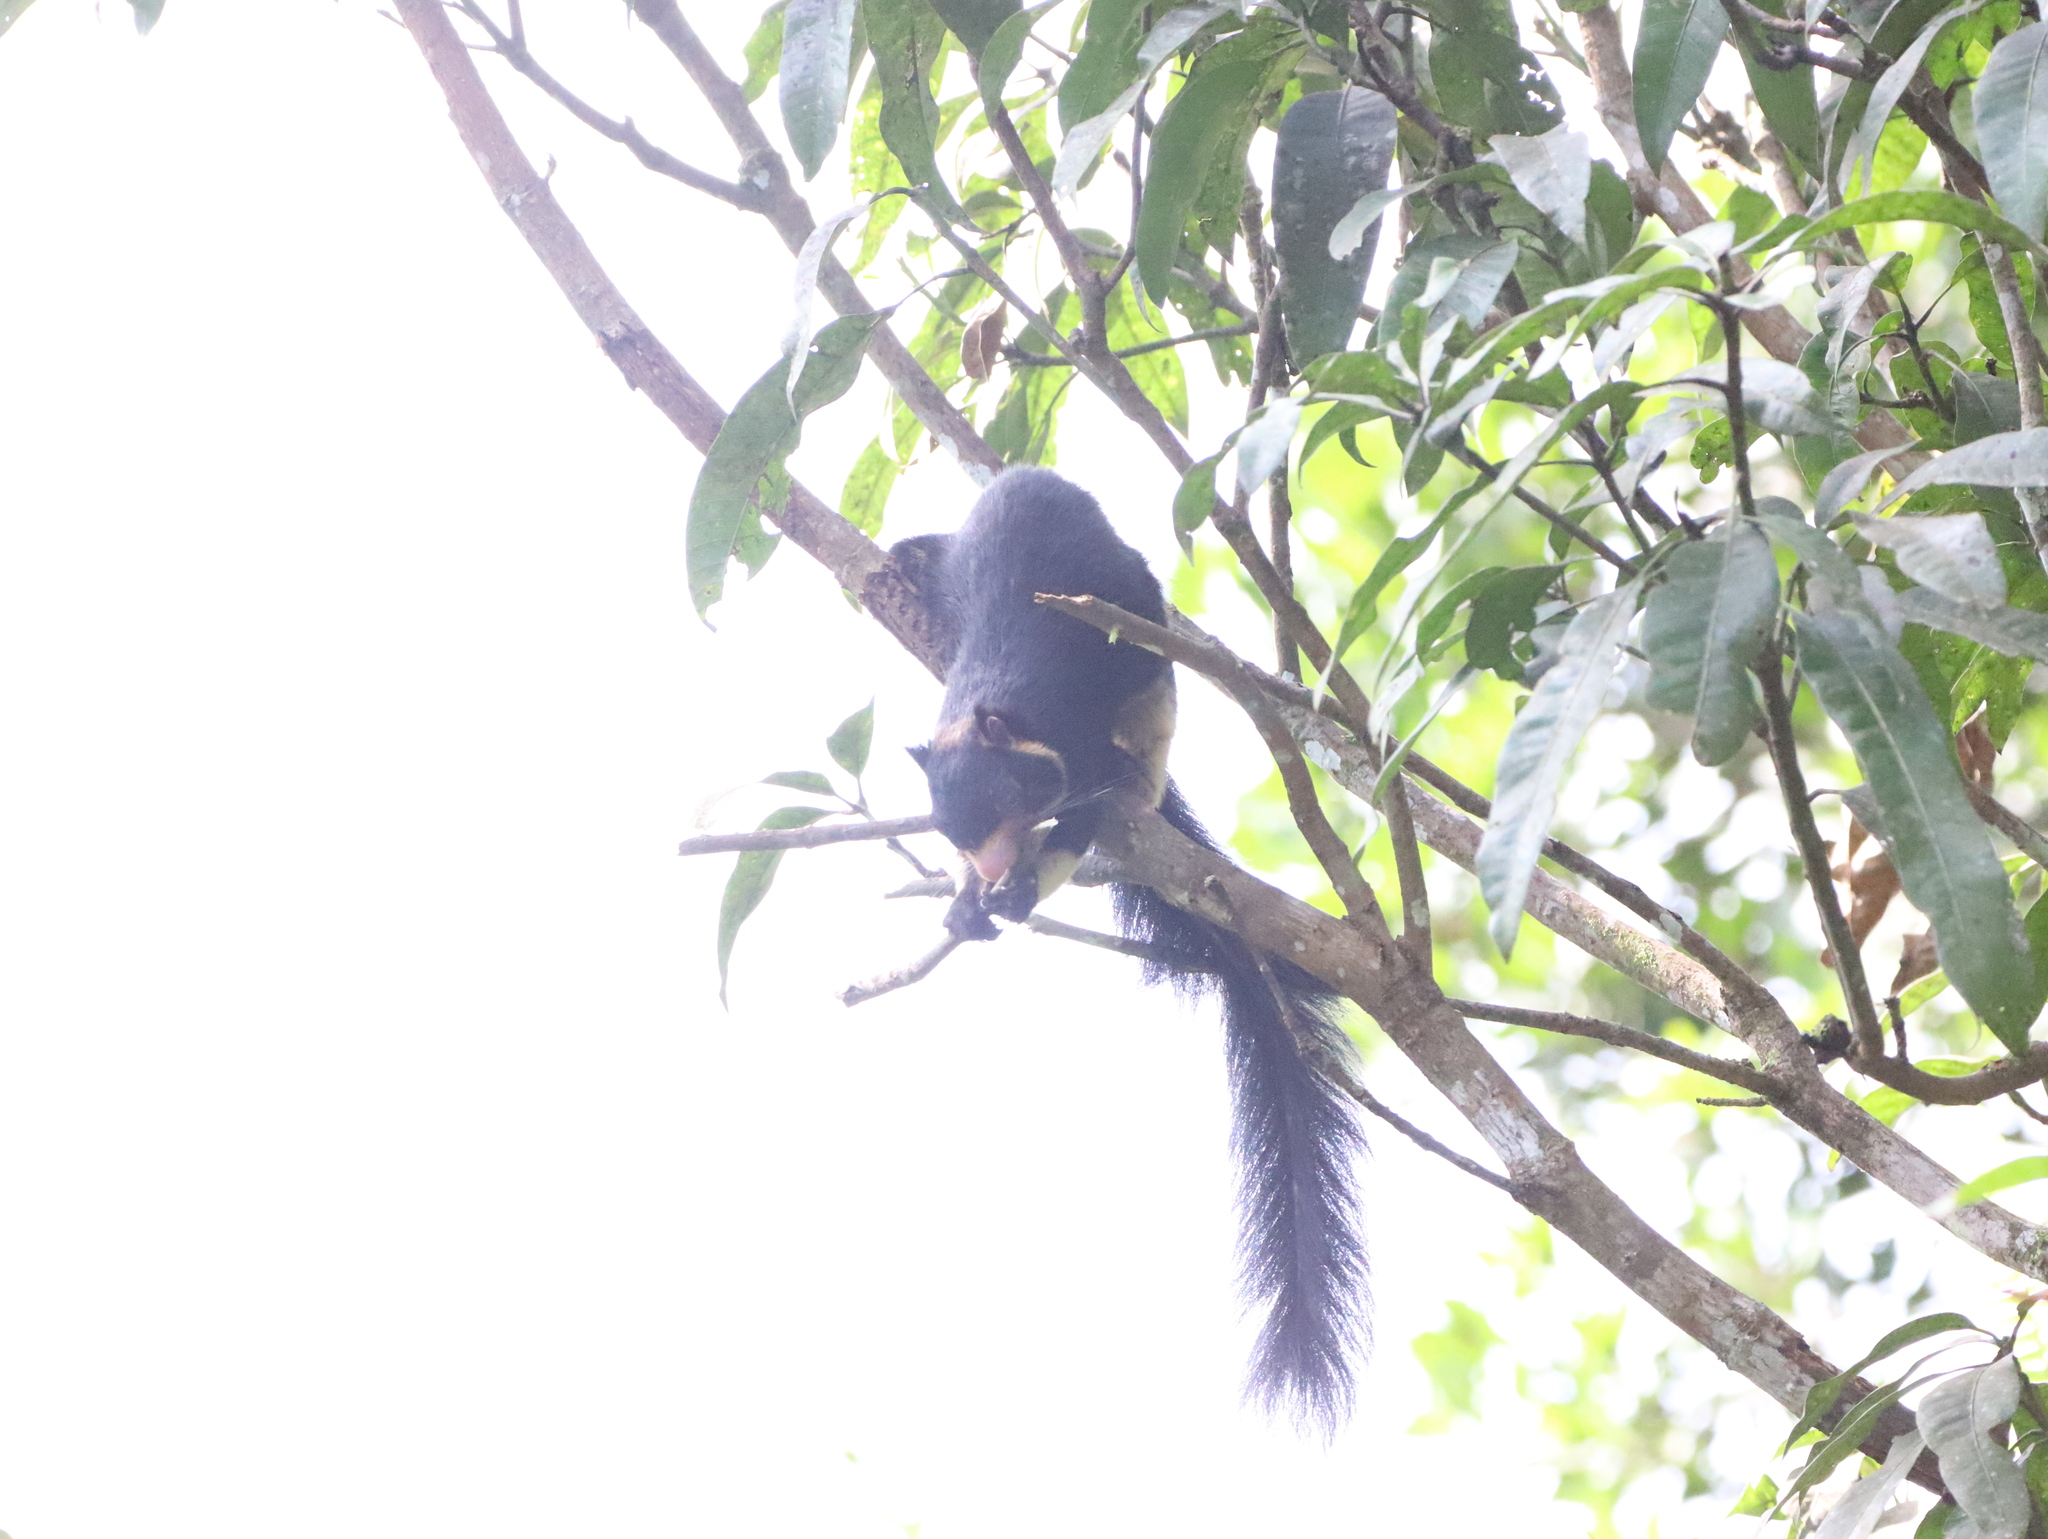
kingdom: Animalia
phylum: Chordata
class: Mammalia
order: Rodentia
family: Sciuridae
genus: Ratufa
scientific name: Ratufa macroura
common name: Sri lankan giant squirrel
